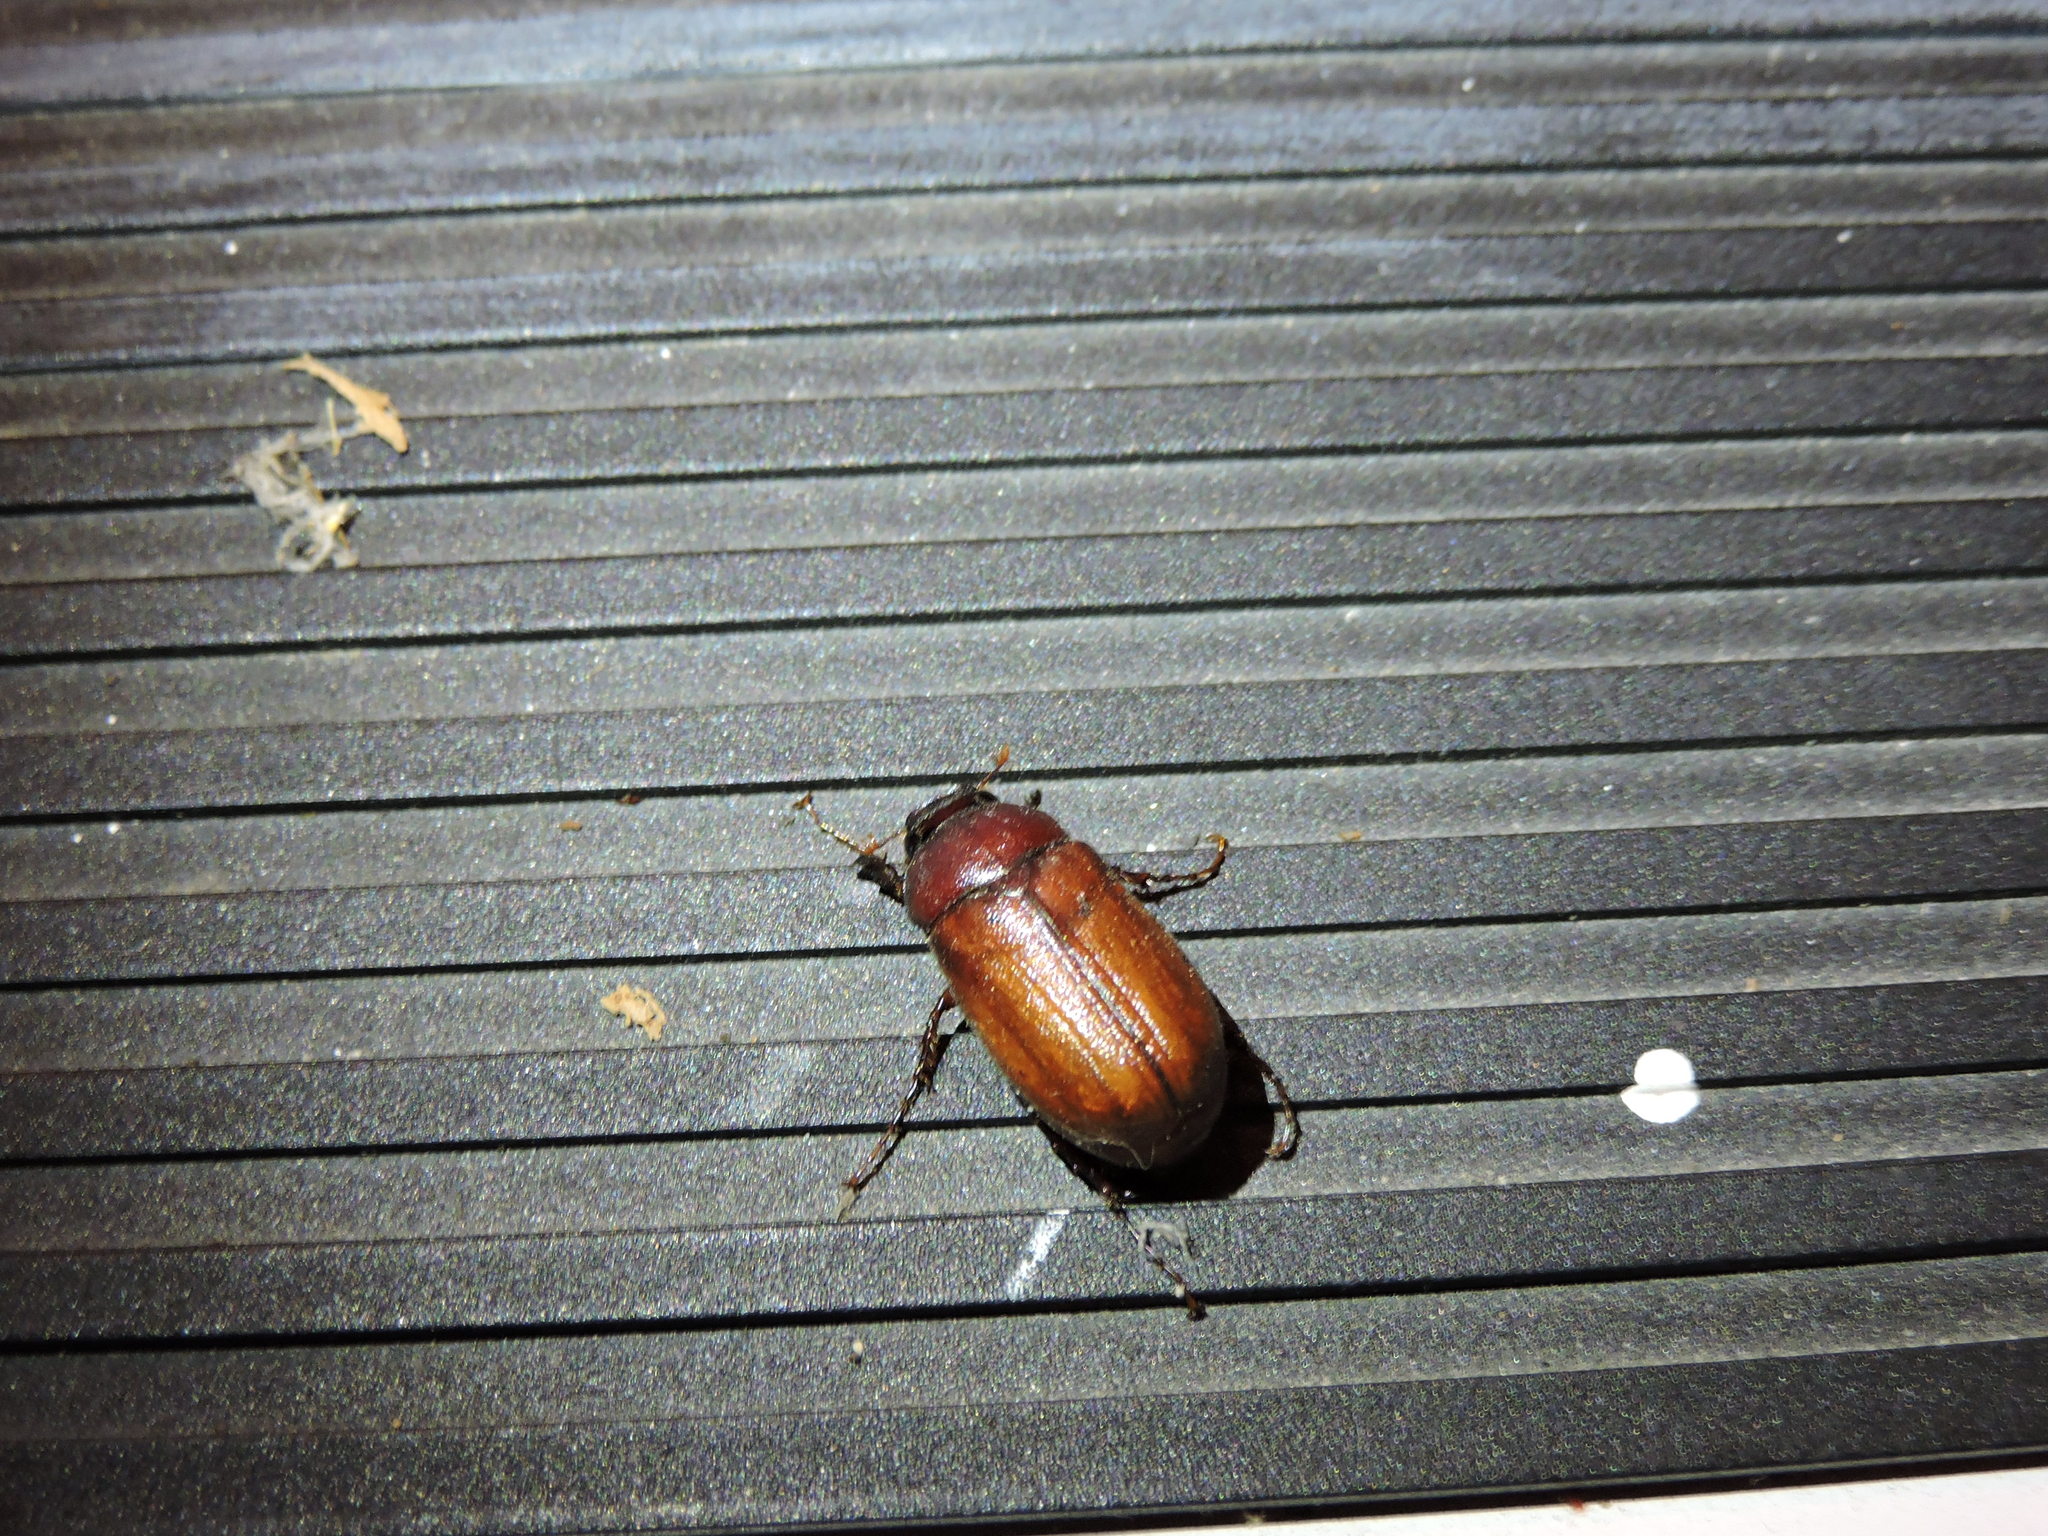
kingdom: Animalia
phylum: Arthropoda
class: Insecta
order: Coleoptera
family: Scarabaeidae
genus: Phyllophaga
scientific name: Phyllophaga
